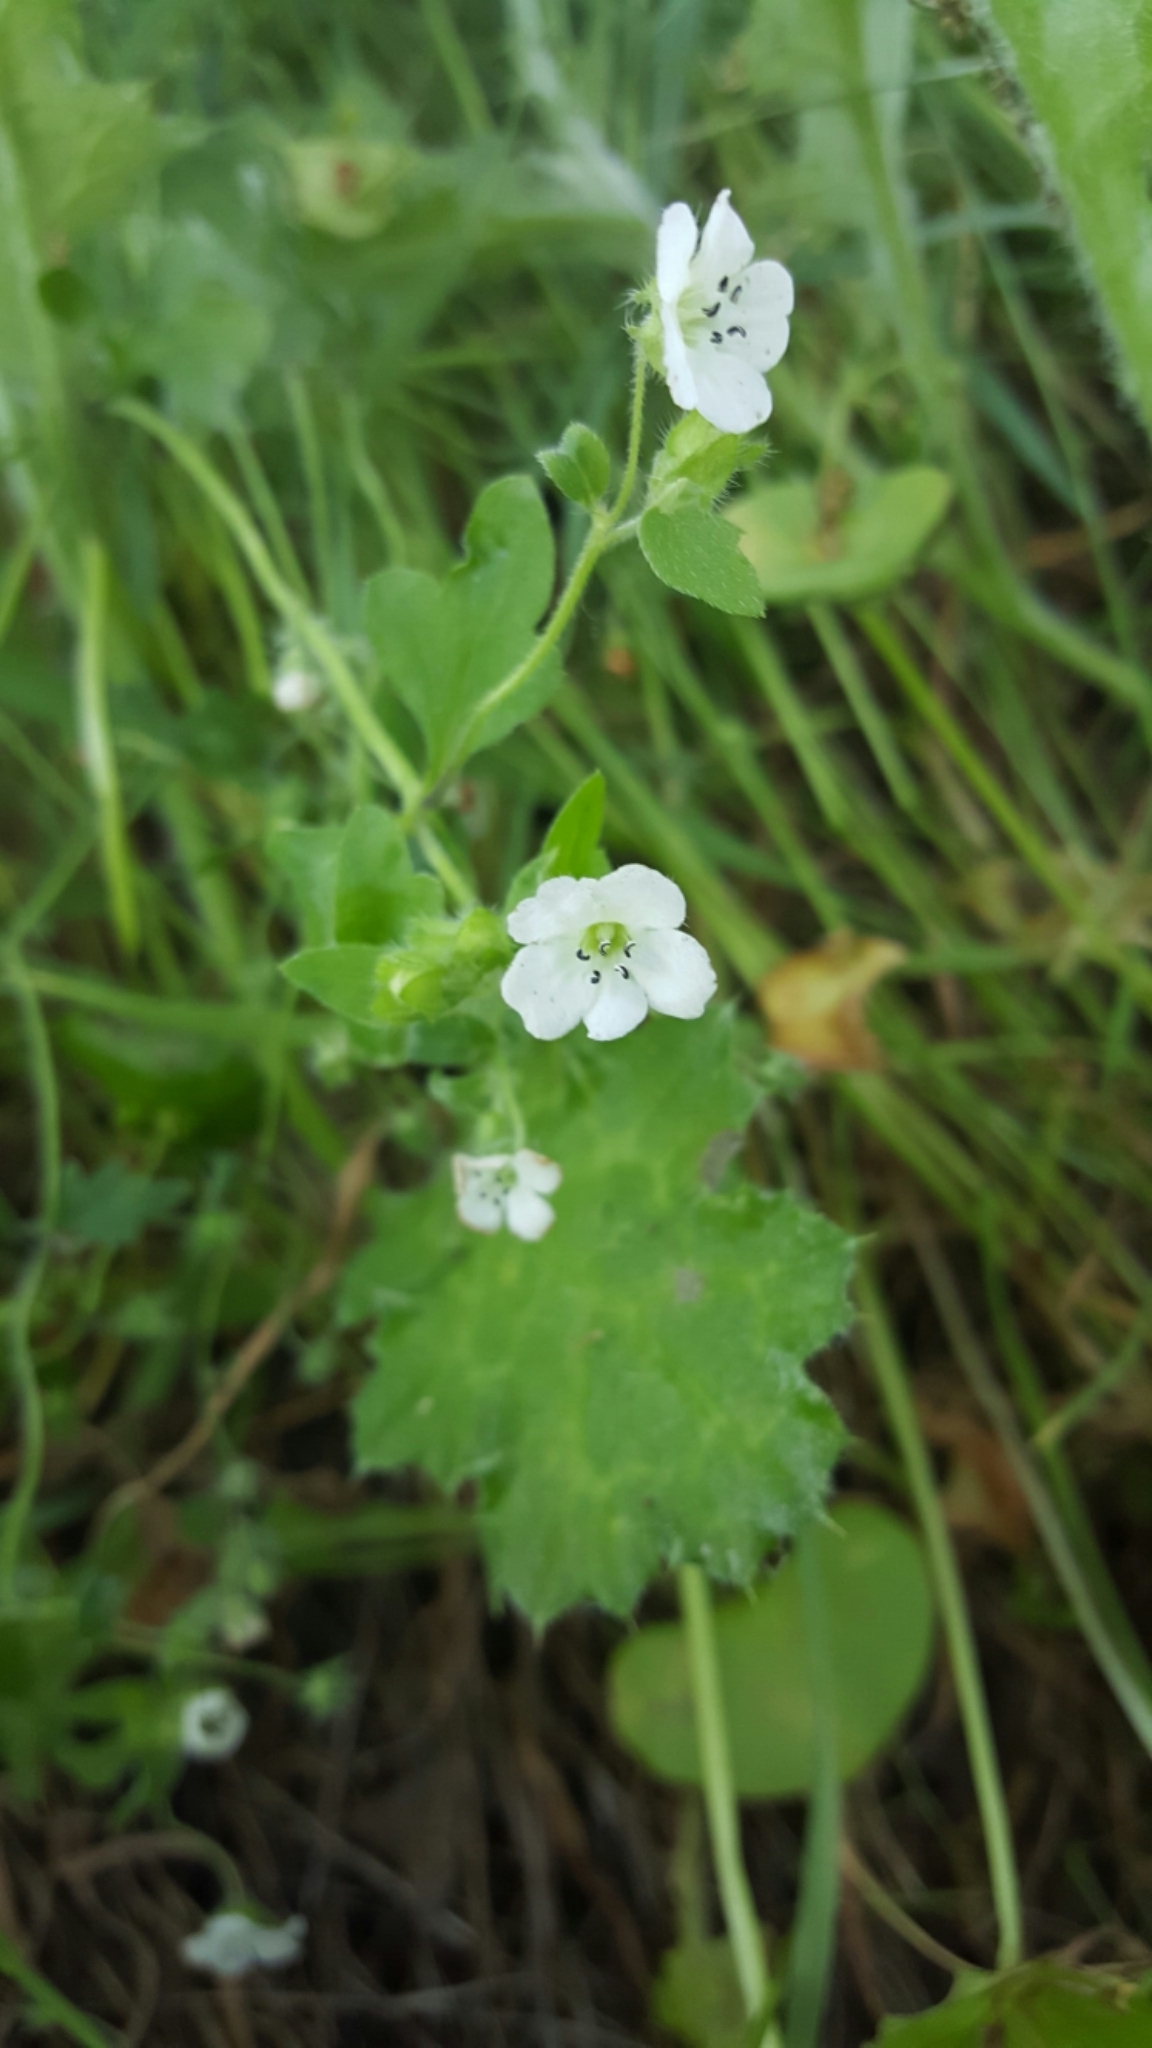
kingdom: Plantae
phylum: Tracheophyta
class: Magnoliopsida
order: Boraginales
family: Hydrophyllaceae
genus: Nemophila
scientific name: Nemophila heterophylla
